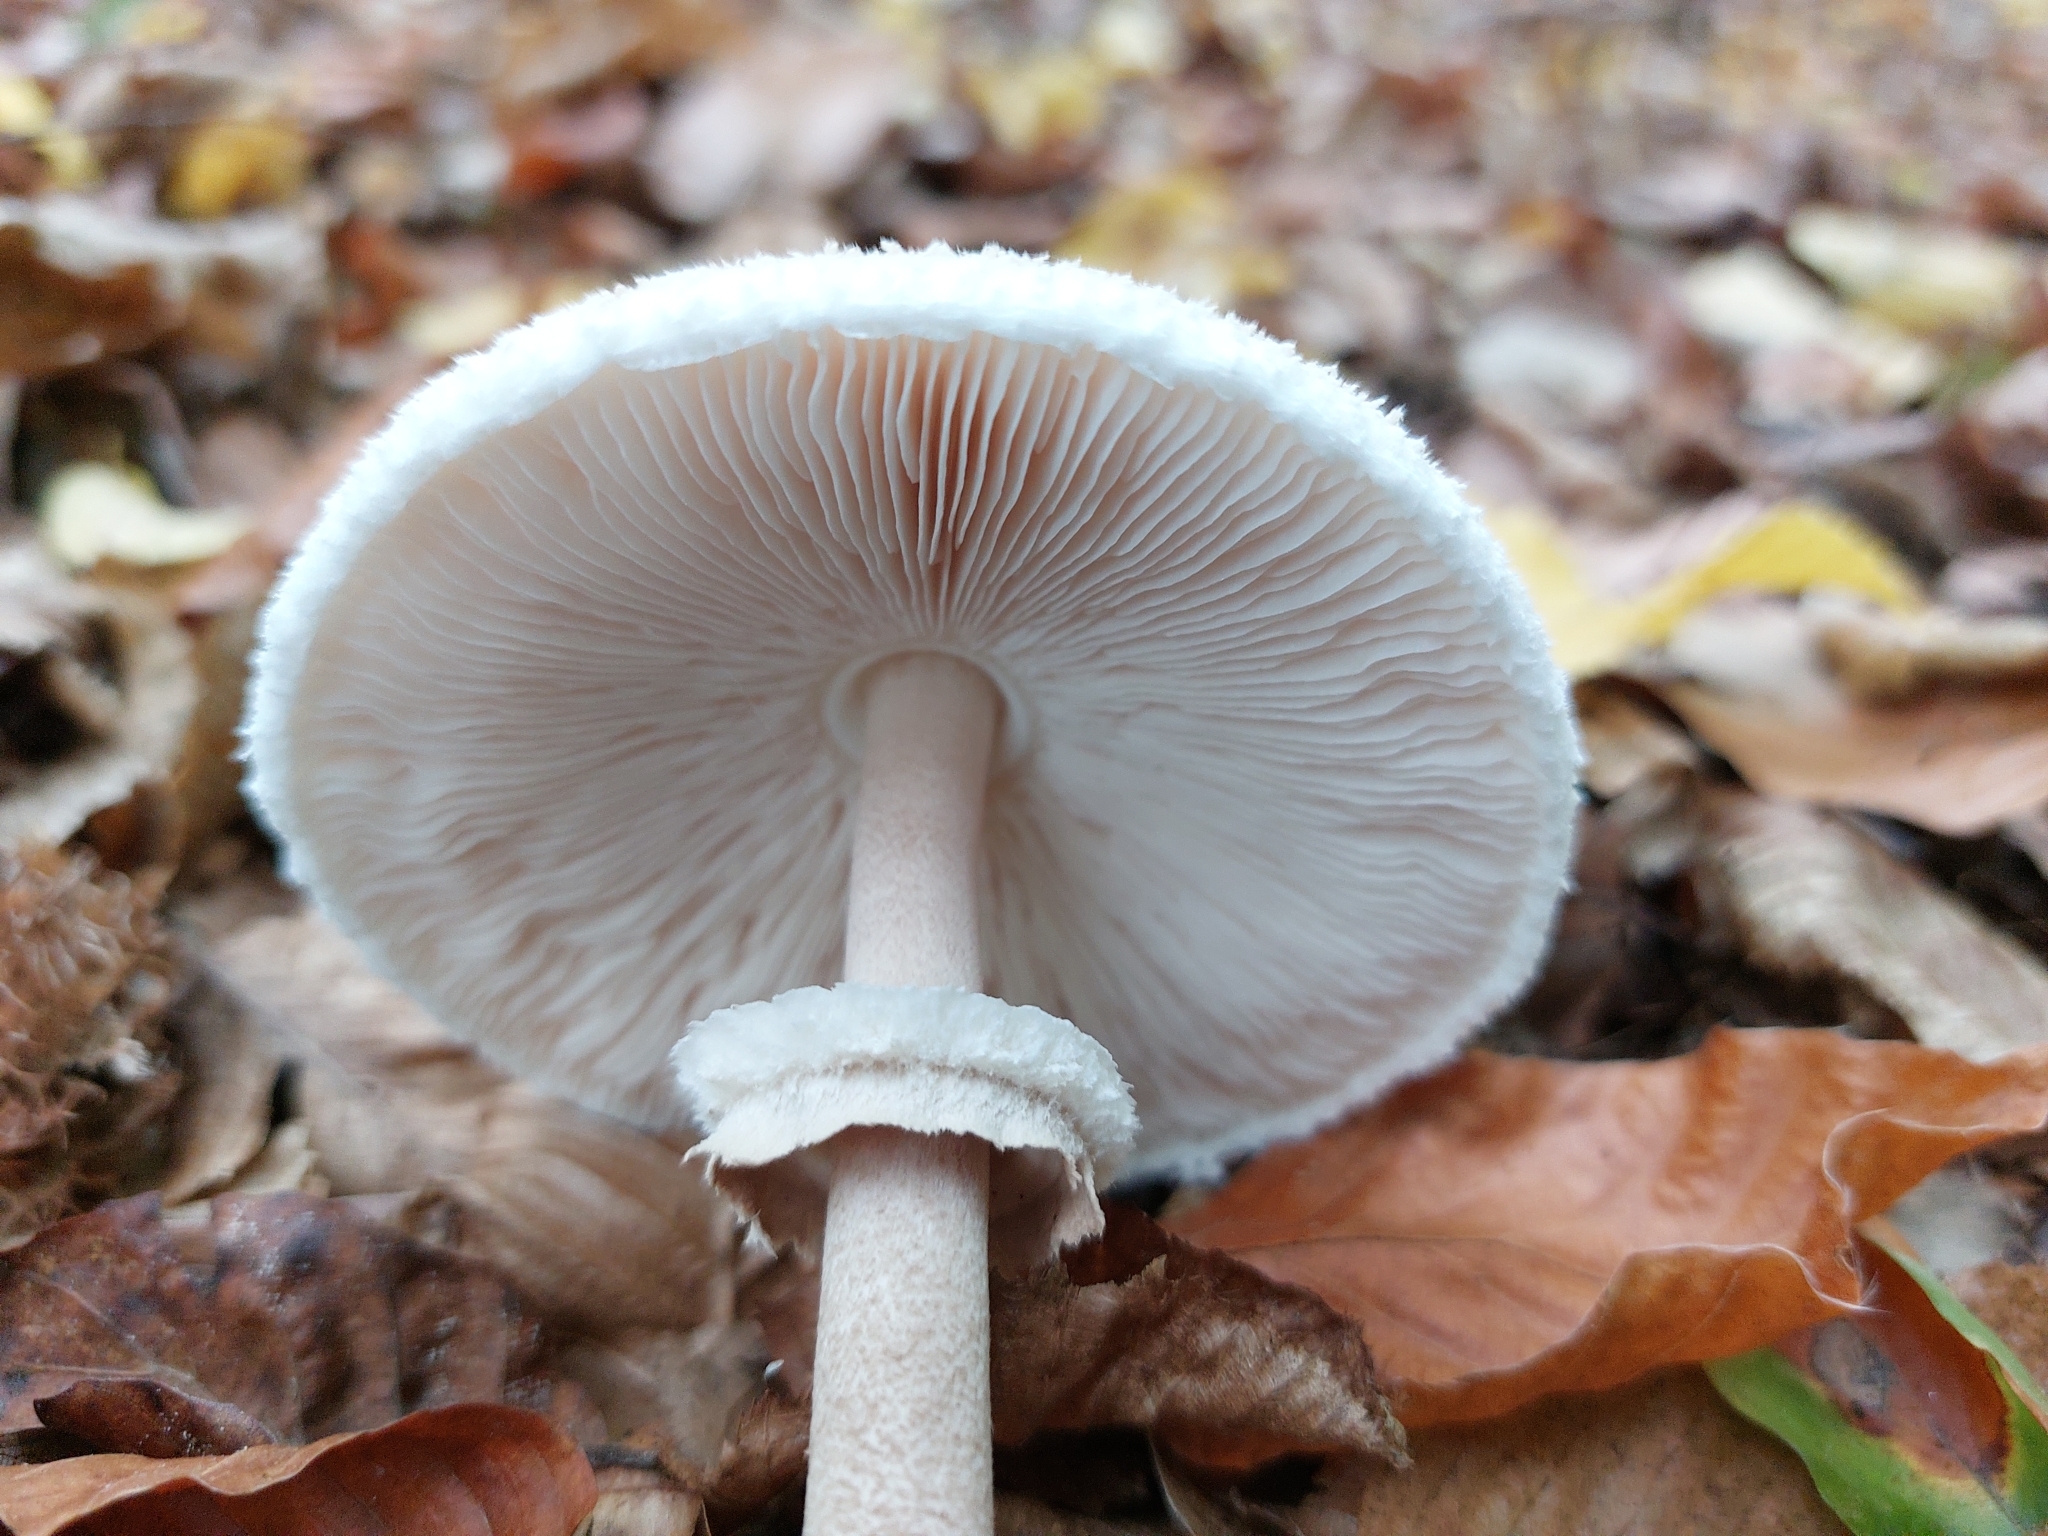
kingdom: Fungi
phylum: Basidiomycota
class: Agaricomycetes
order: Agaricales
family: Agaricaceae
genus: Macrolepiota
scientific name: Macrolepiota fuliginosa
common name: Sooty parasol
